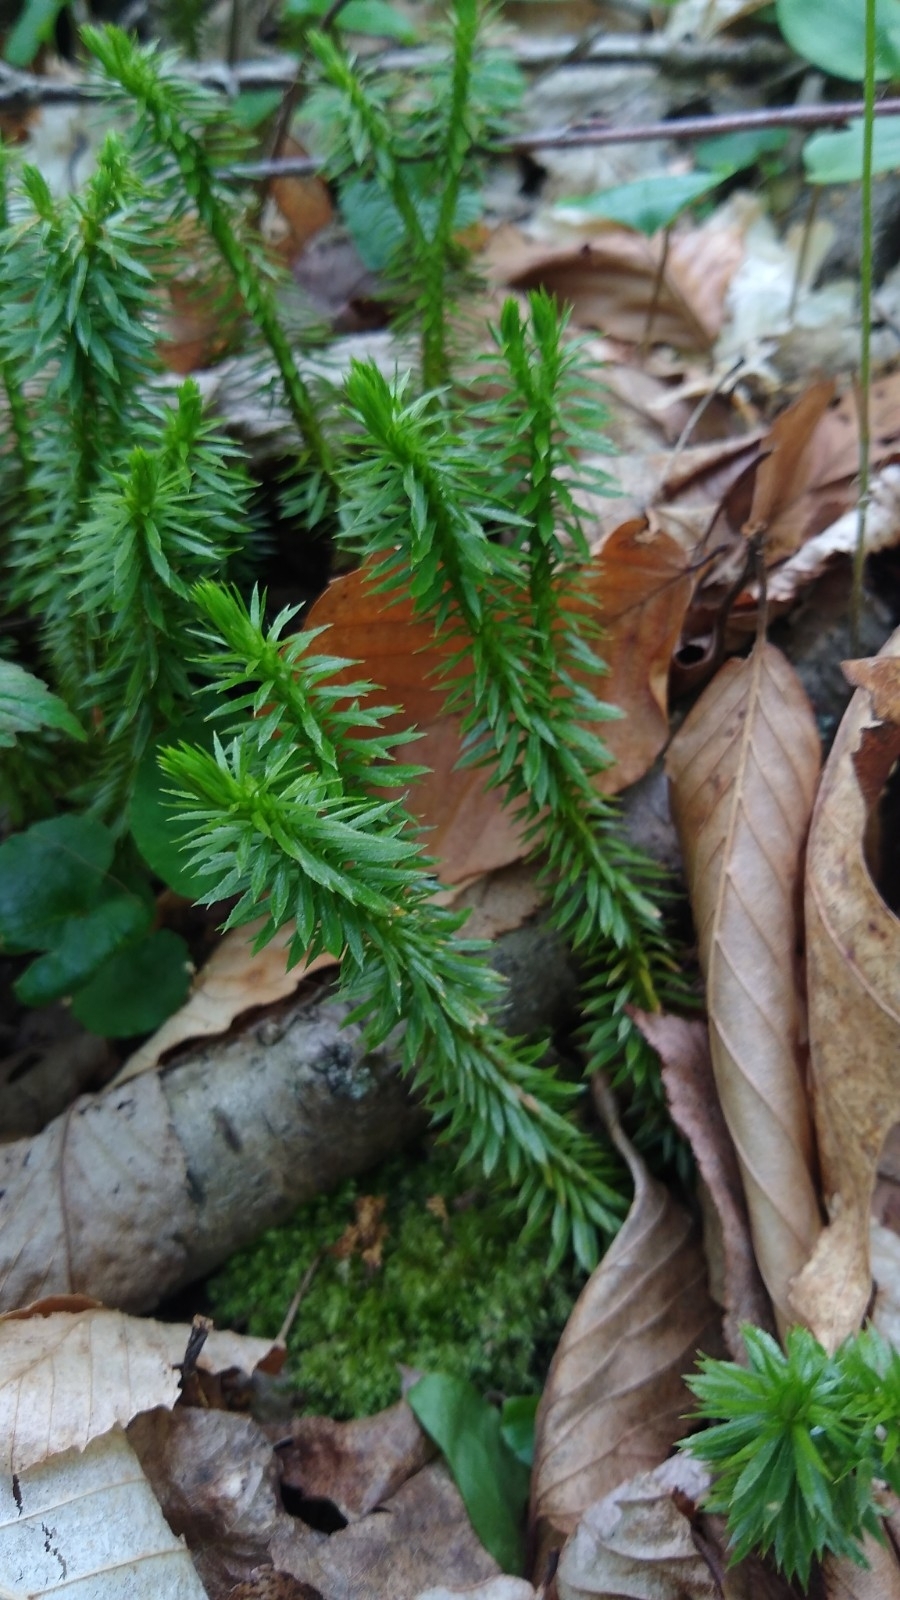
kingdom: Plantae
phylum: Tracheophyta
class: Lycopodiopsida
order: Lycopodiales
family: Lycopodiaceae
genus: Huperzia
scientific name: Huperzia lucidula
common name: Shining clubmoss
